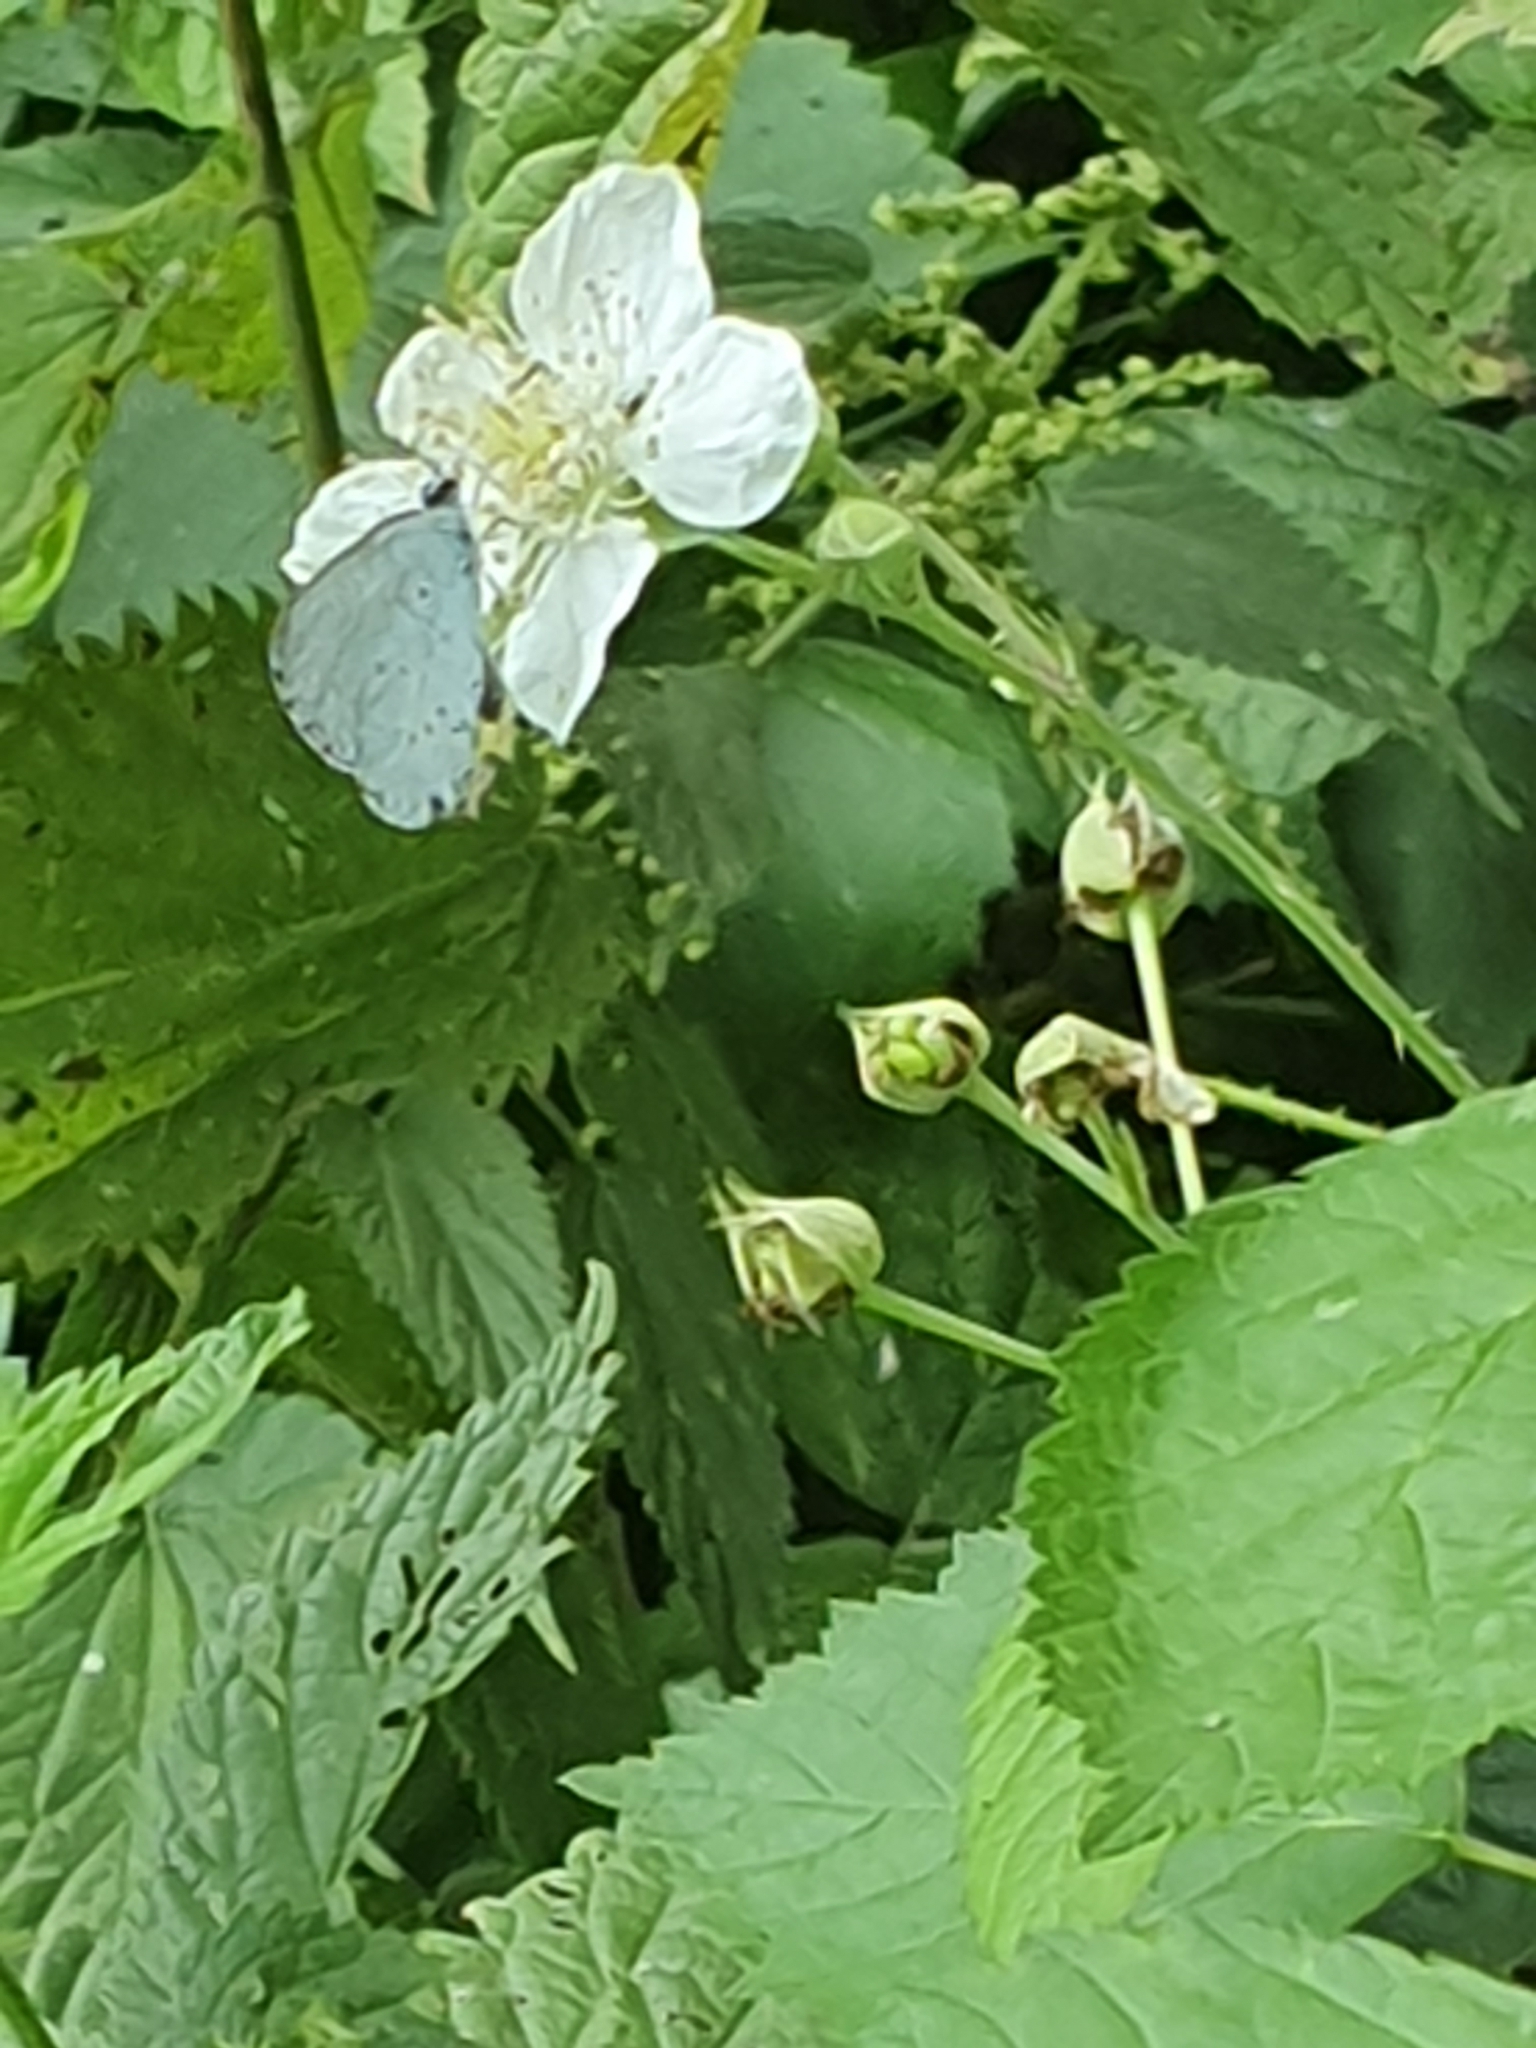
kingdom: Animalia
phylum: Arthropoda
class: Insecta
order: Lepidoptera
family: Lycaenidae
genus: Celastrina
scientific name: Celastrina argiolus
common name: Holly blue
